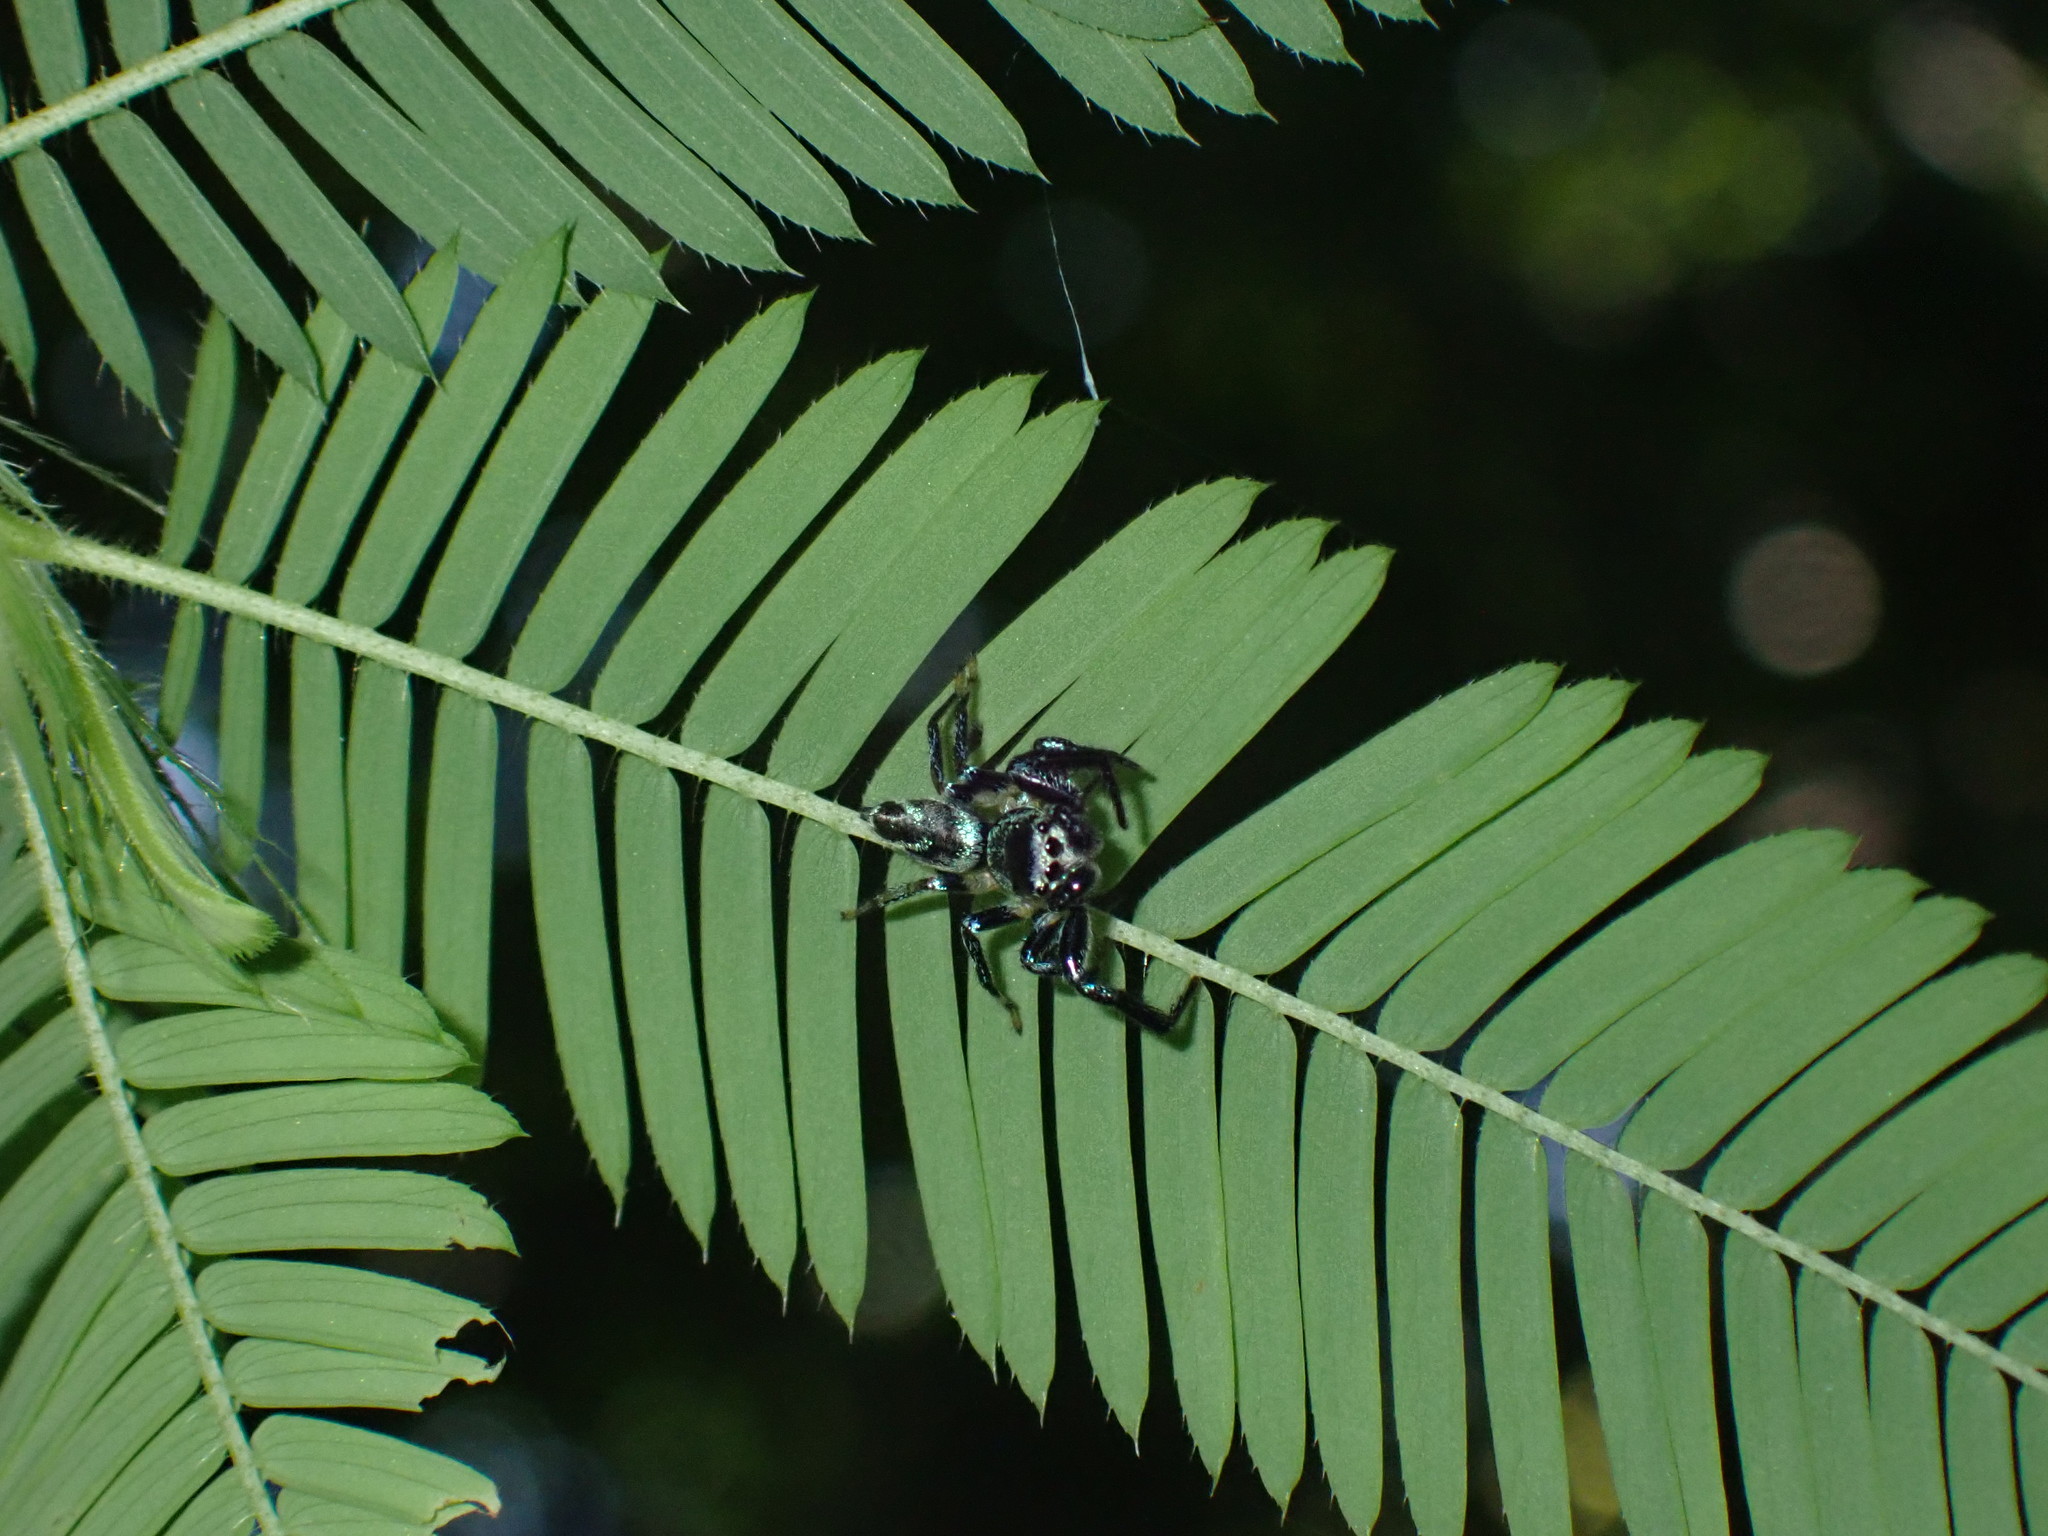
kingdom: Animalia
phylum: Arthropoda
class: Arachnida
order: Araneae
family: Salticidae
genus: Thiania
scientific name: Thiania bhamoensis
